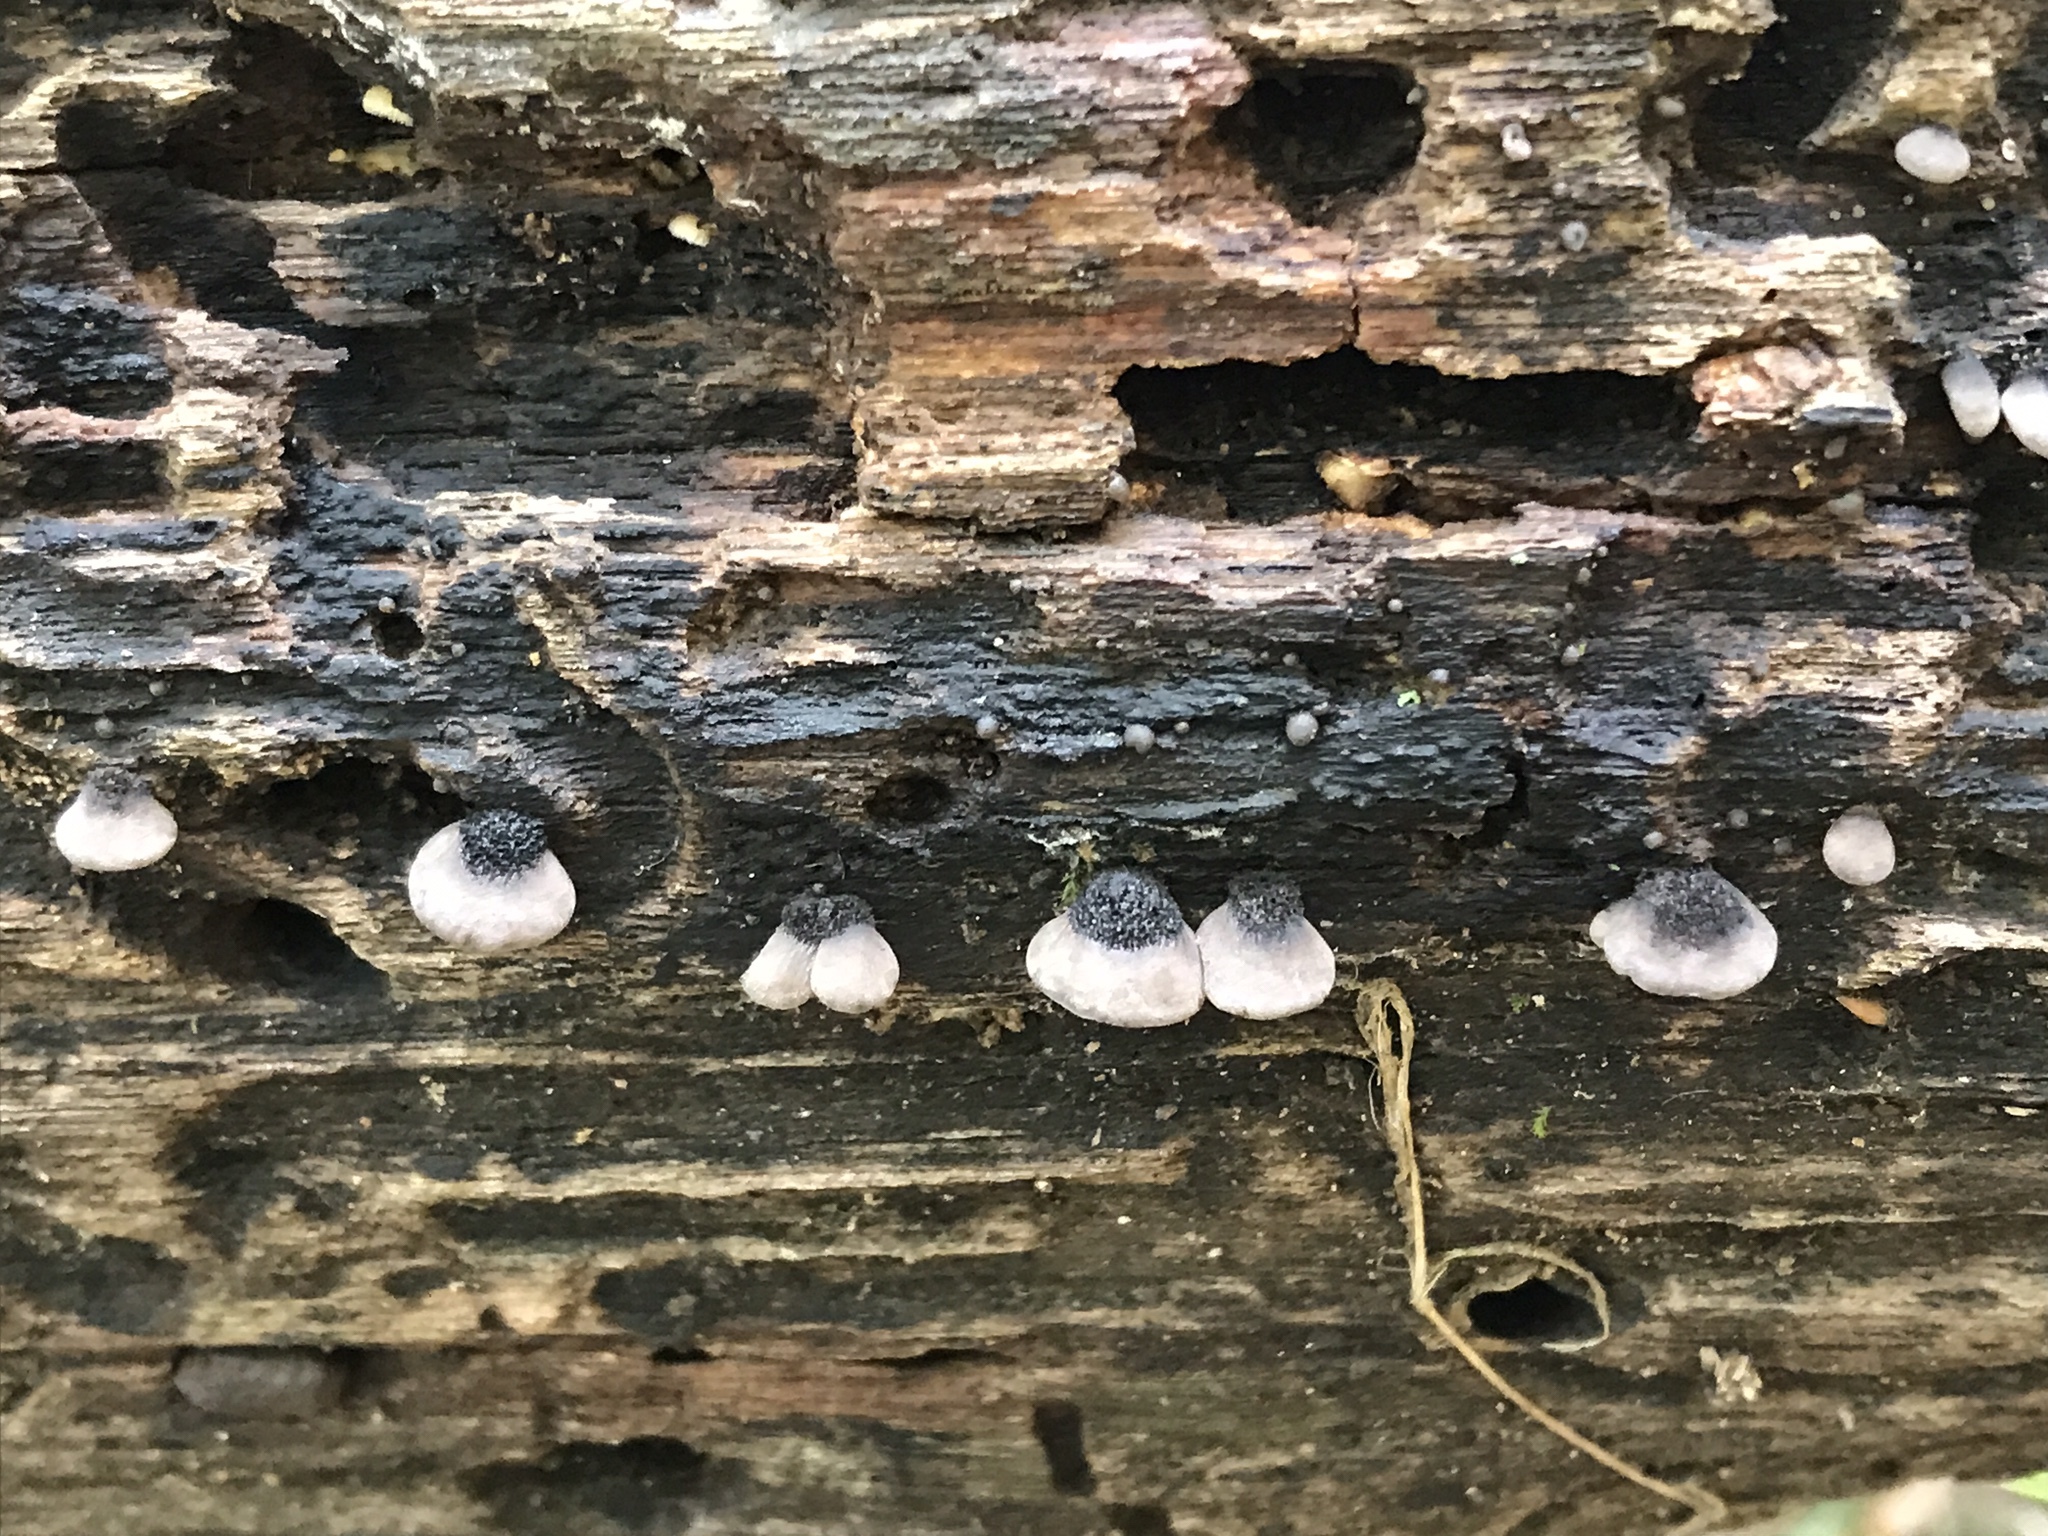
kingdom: Fungi
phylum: Basidiomycota
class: Agaricomycetes
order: Agaricales
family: Pleurotaceae
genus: Resupinatus
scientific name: Resupinatus alboniger
